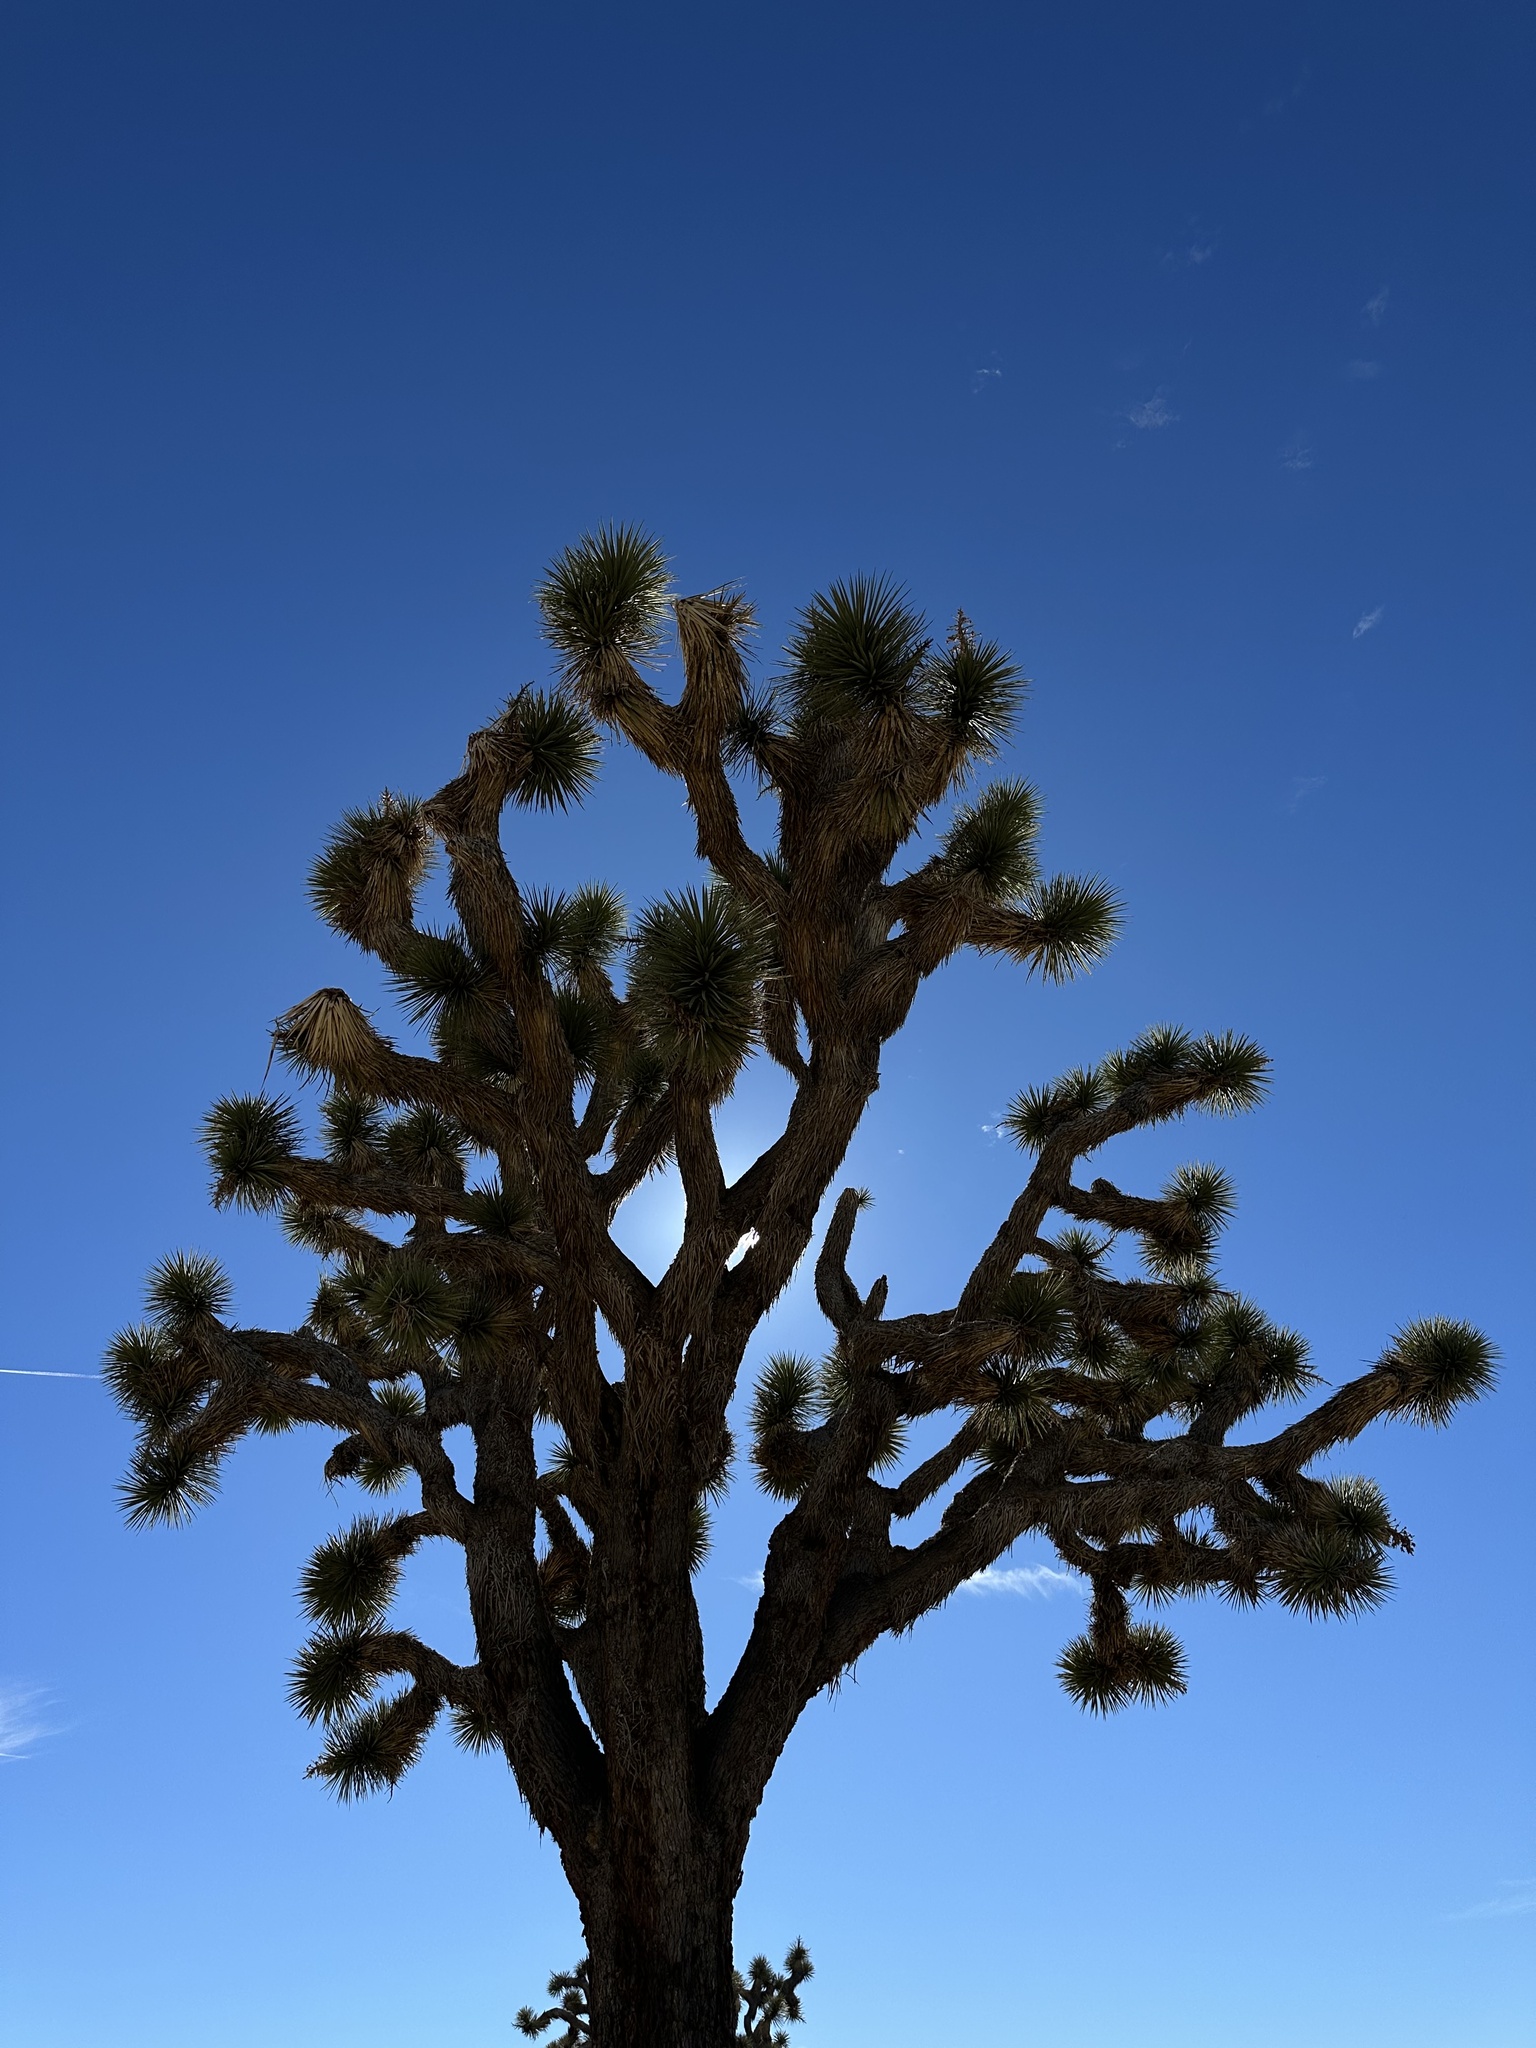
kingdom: Plantae
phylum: Tracheophyta
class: Liliopsida
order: Asparagales
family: Asparagaceae
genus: Yucca
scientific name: Yucca brevifolia
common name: Joshua tree
